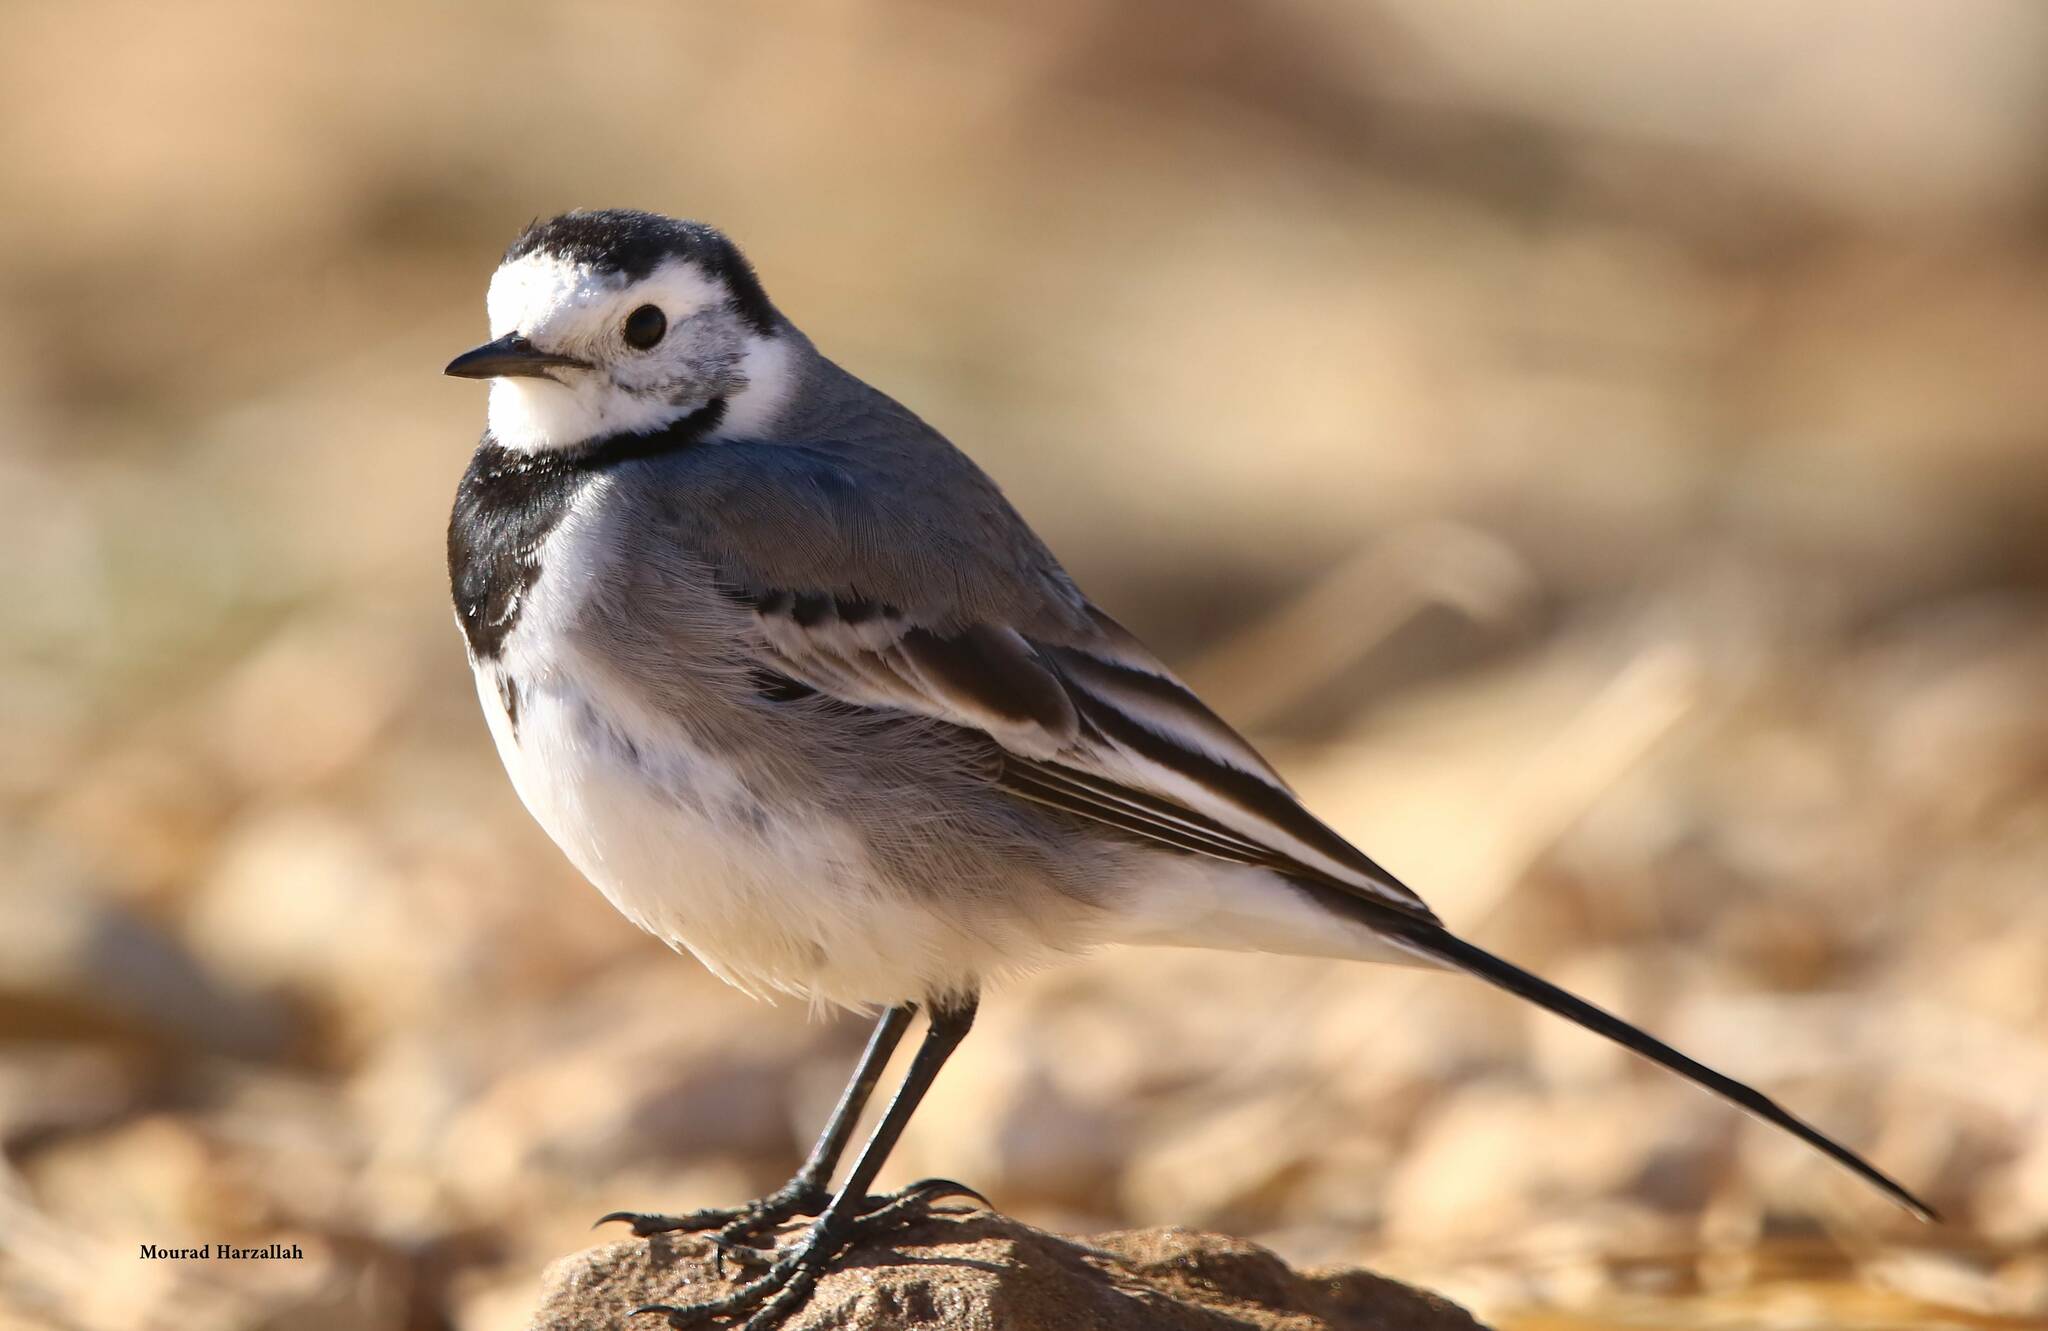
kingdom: Animalia
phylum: Chordata
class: Aves
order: Passeriformes
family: Motacillidae
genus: Motacilla
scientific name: Motacilla alba
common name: White wagtail
